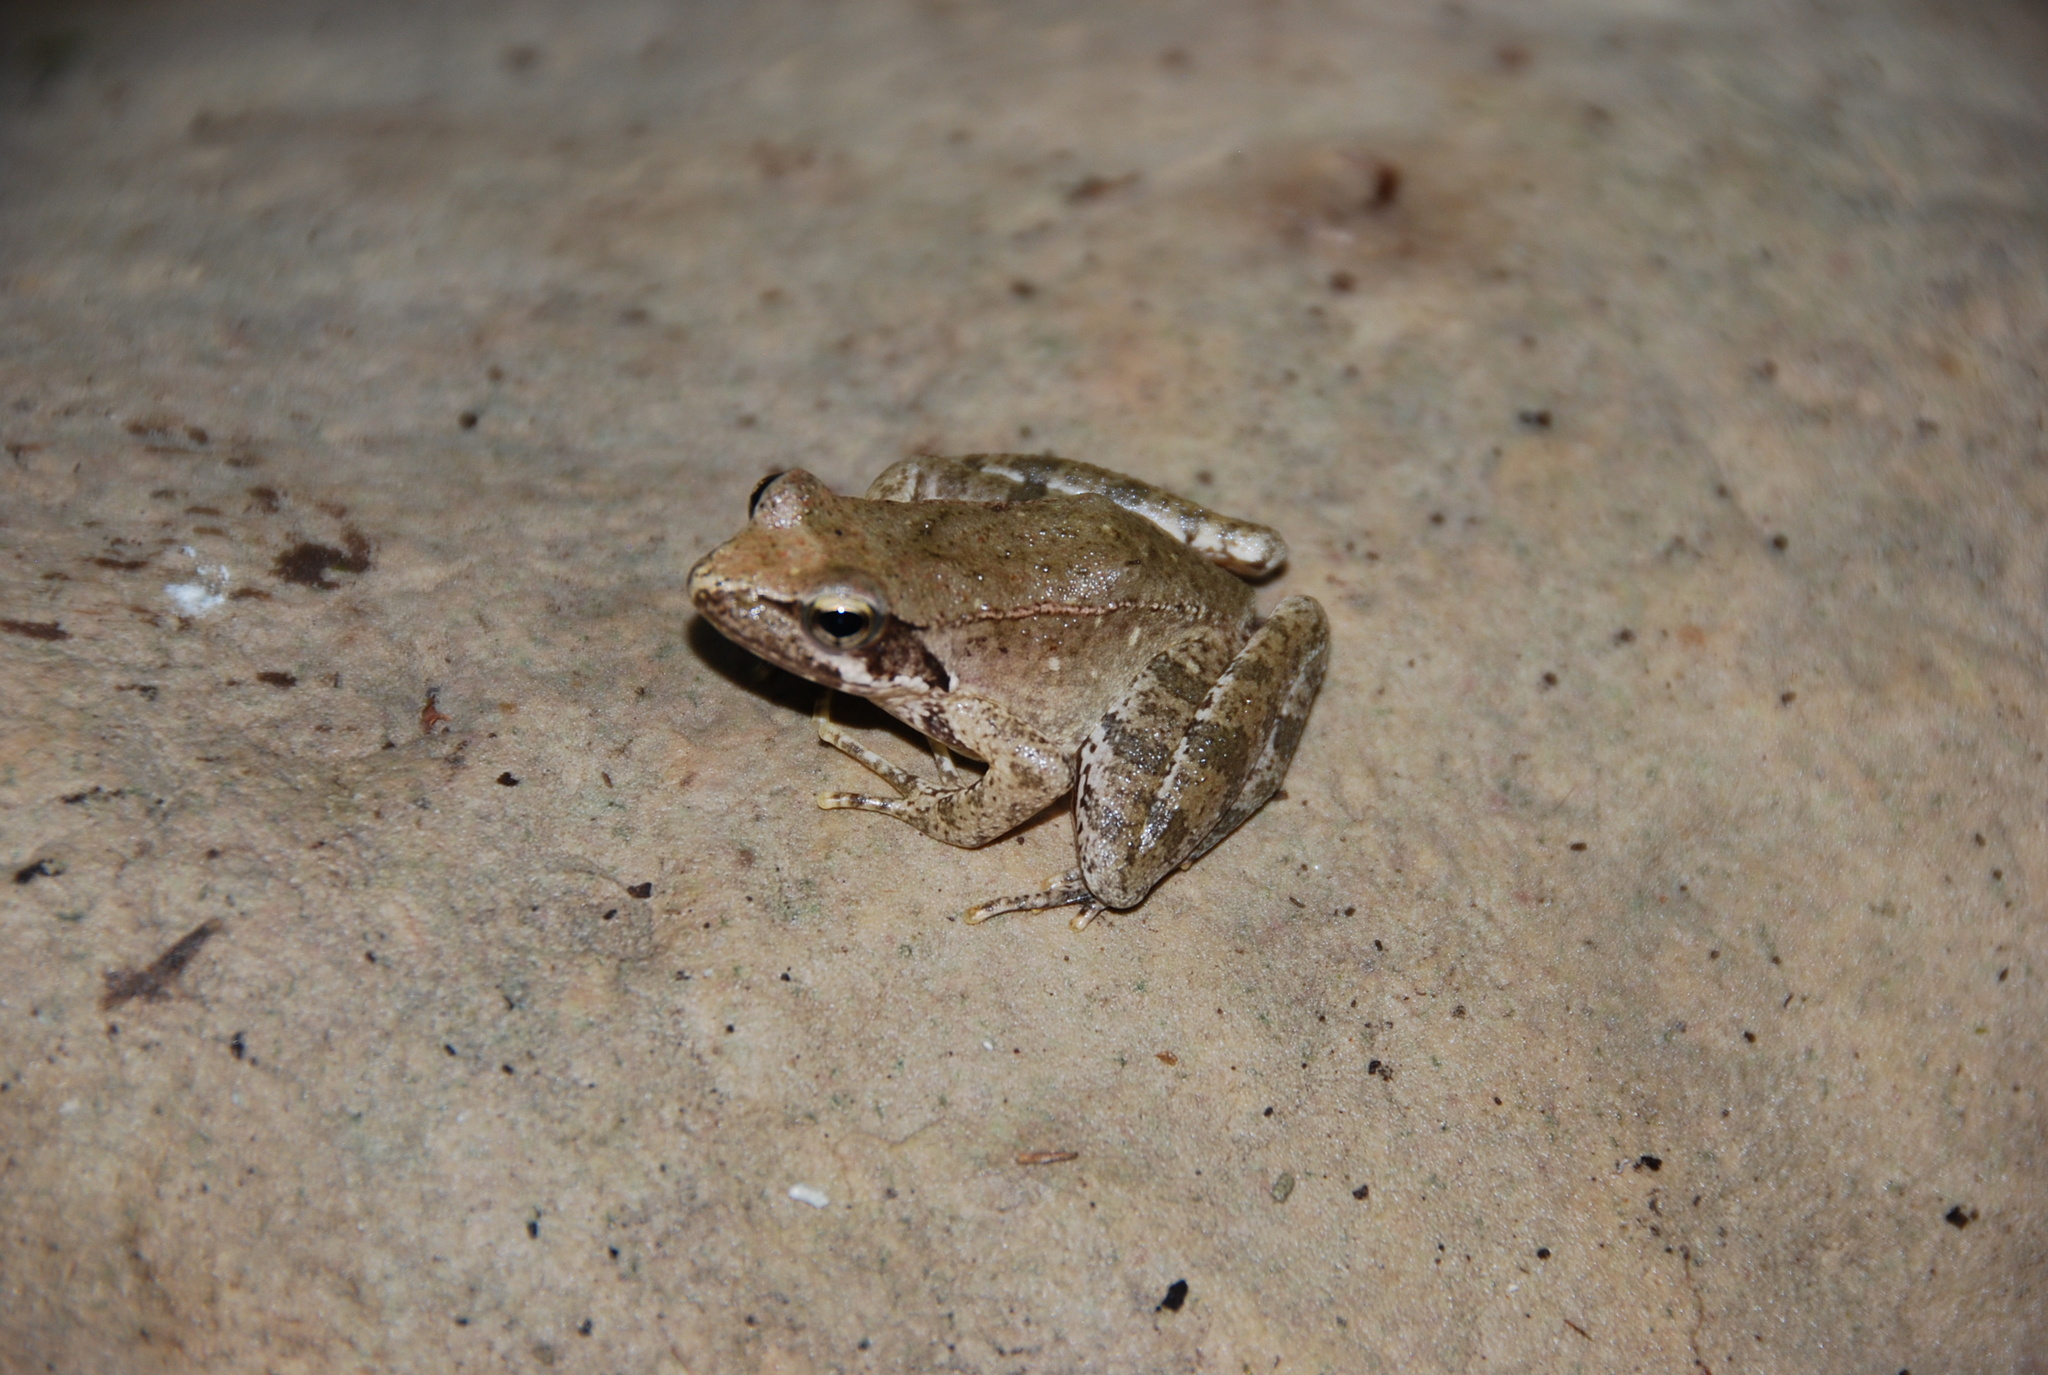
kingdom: Animalia
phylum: Chordata
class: Amphibia
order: Anura
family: Ranidae
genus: Rana
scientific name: Rana italica
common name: Italian stream frog
